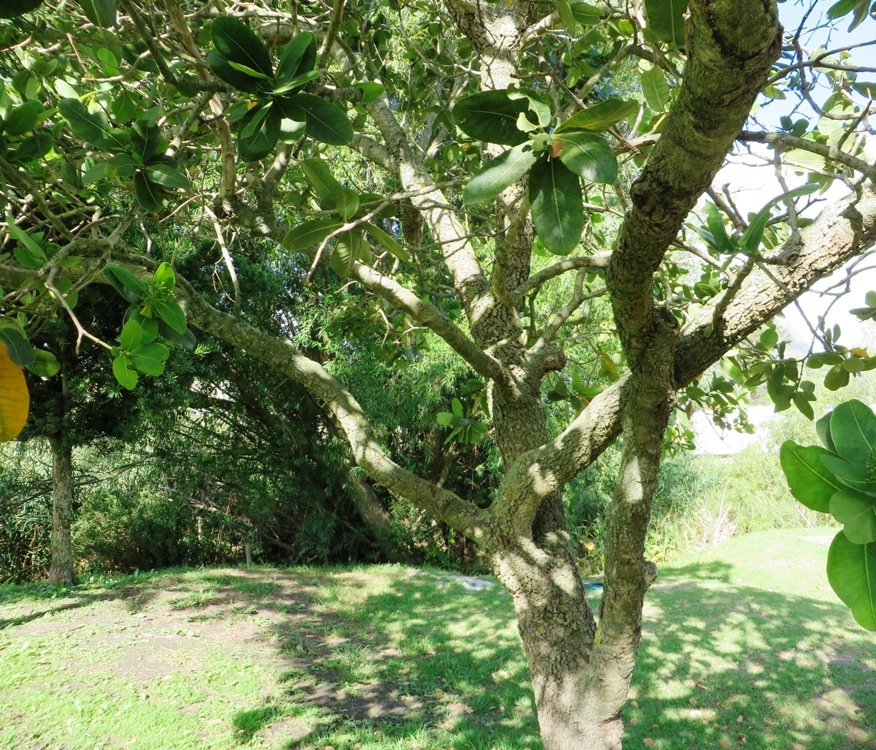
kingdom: Plantae
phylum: Tracheophyta
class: Magnoliopsida
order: Myrtales
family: Myrtaceae
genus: Syzygium
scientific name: Syzygium cordatum
